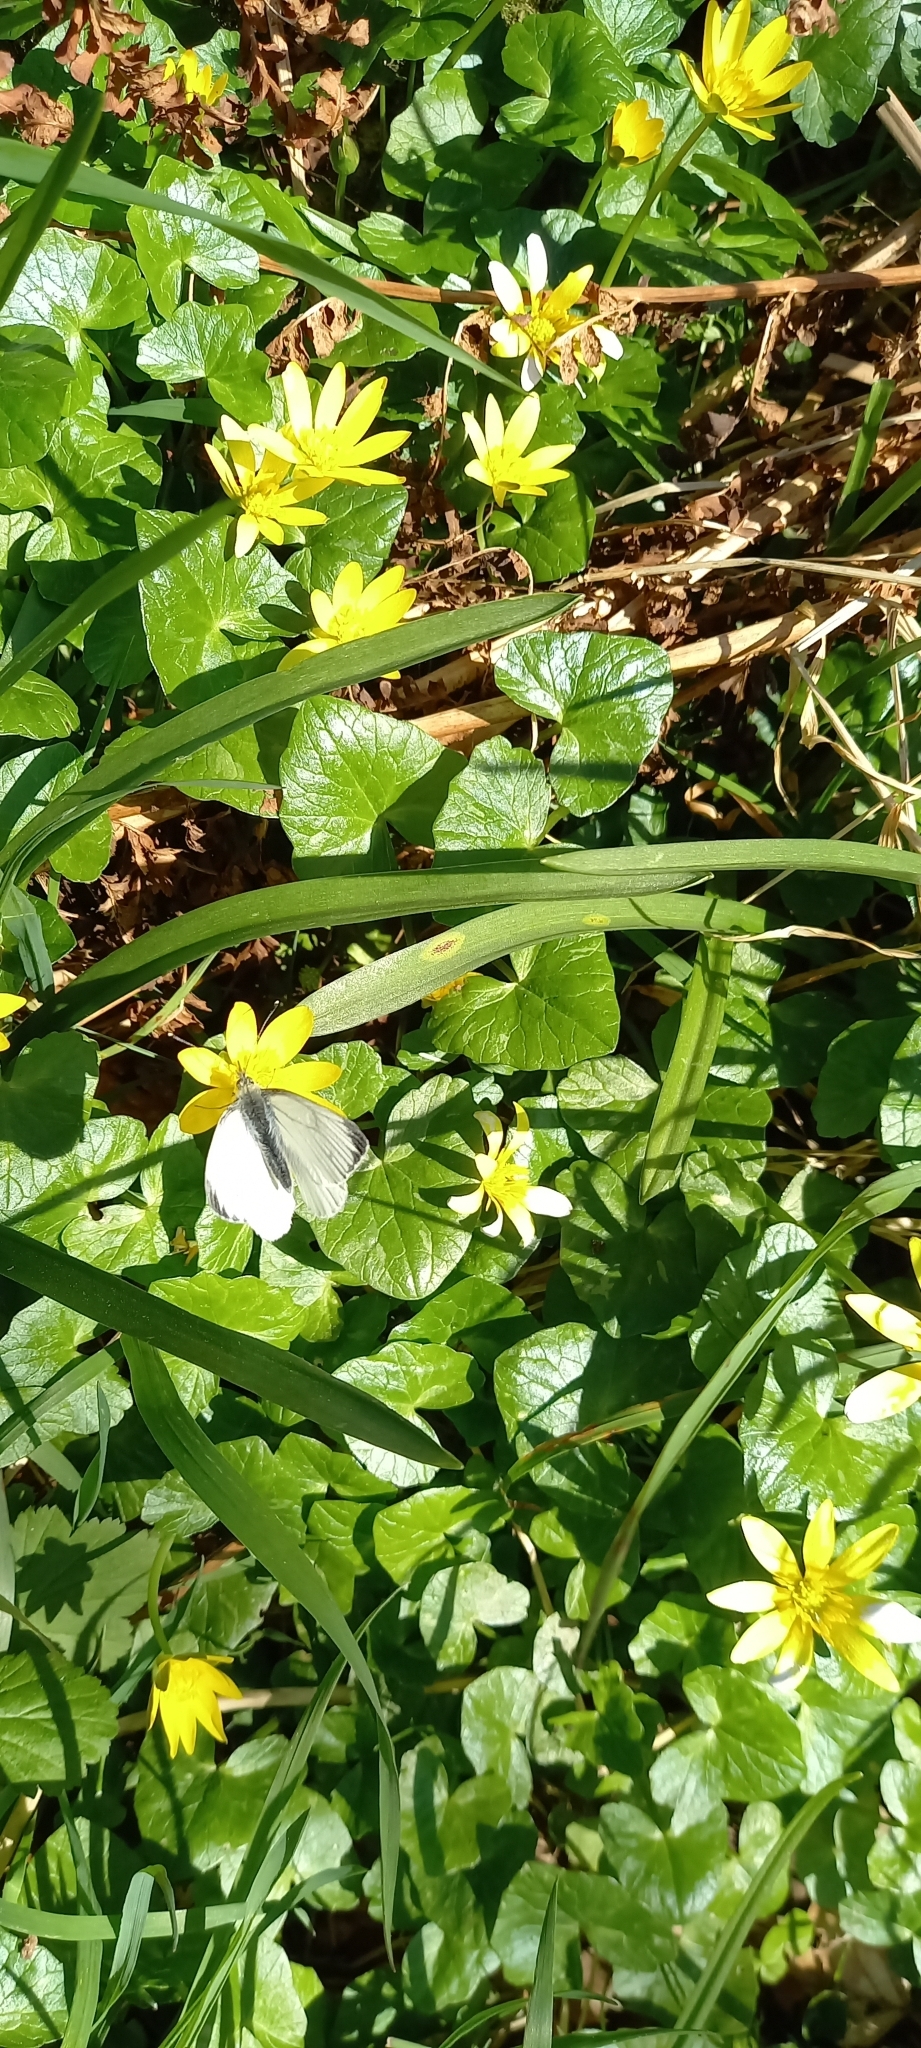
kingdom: Animalia
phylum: Arthropoda
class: Insecta
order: Lepidoptera
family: Pieridae
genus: Pieris
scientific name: Pieris napi
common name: Green-veined white
